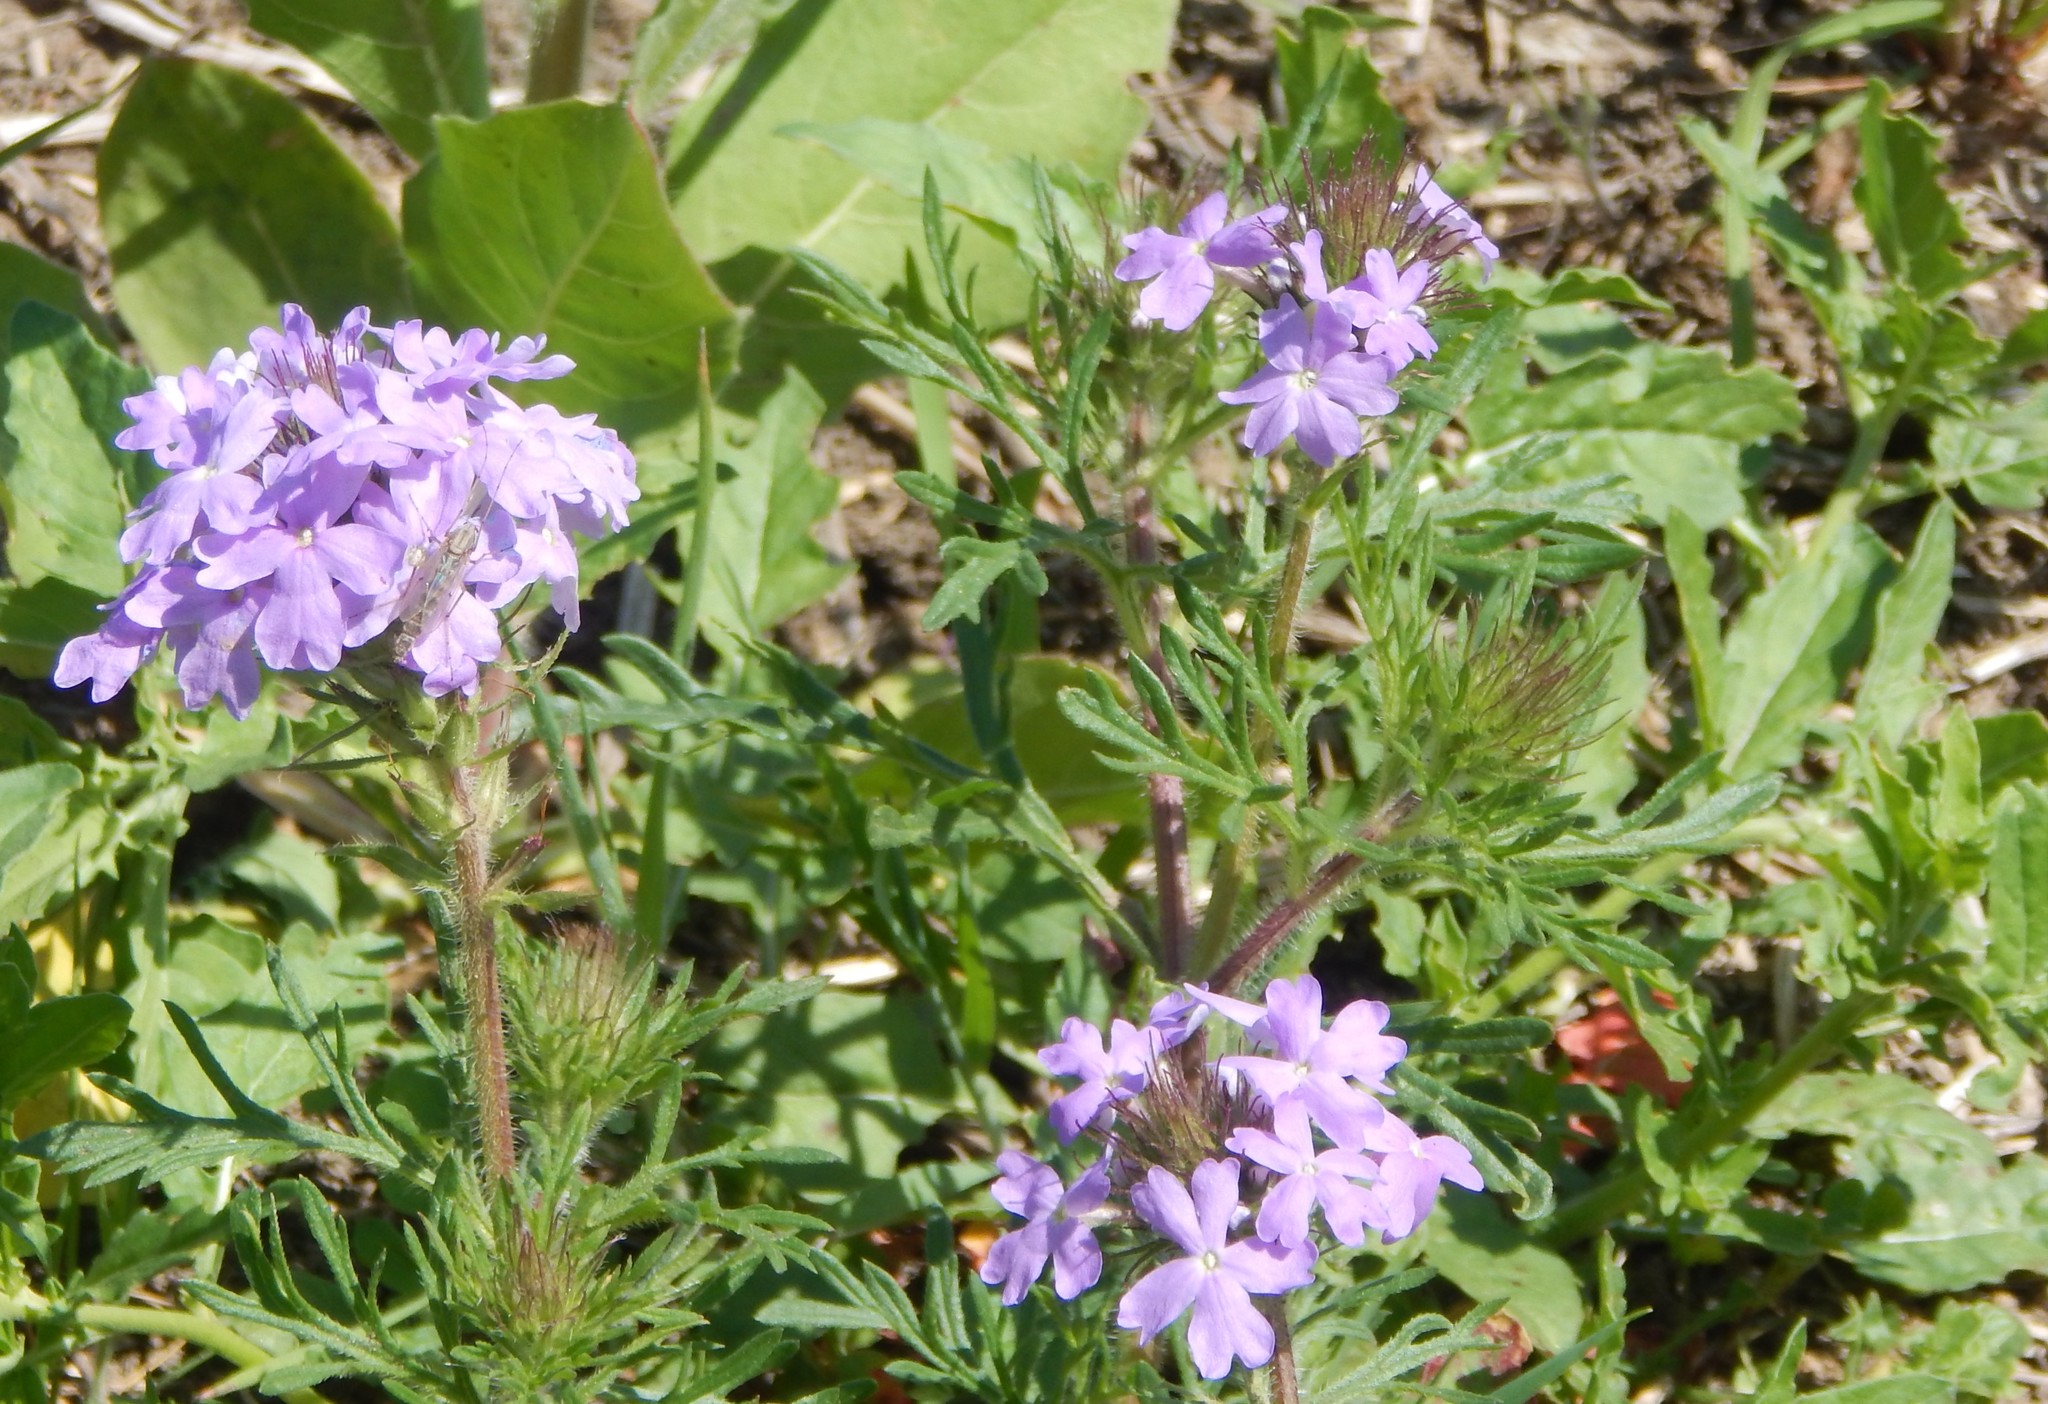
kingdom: Plantae
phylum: Tracheophyta
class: Magnoliopsida
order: Lamiales
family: Verbenaceae
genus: Verbena
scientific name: Verbena bipinnatifida
